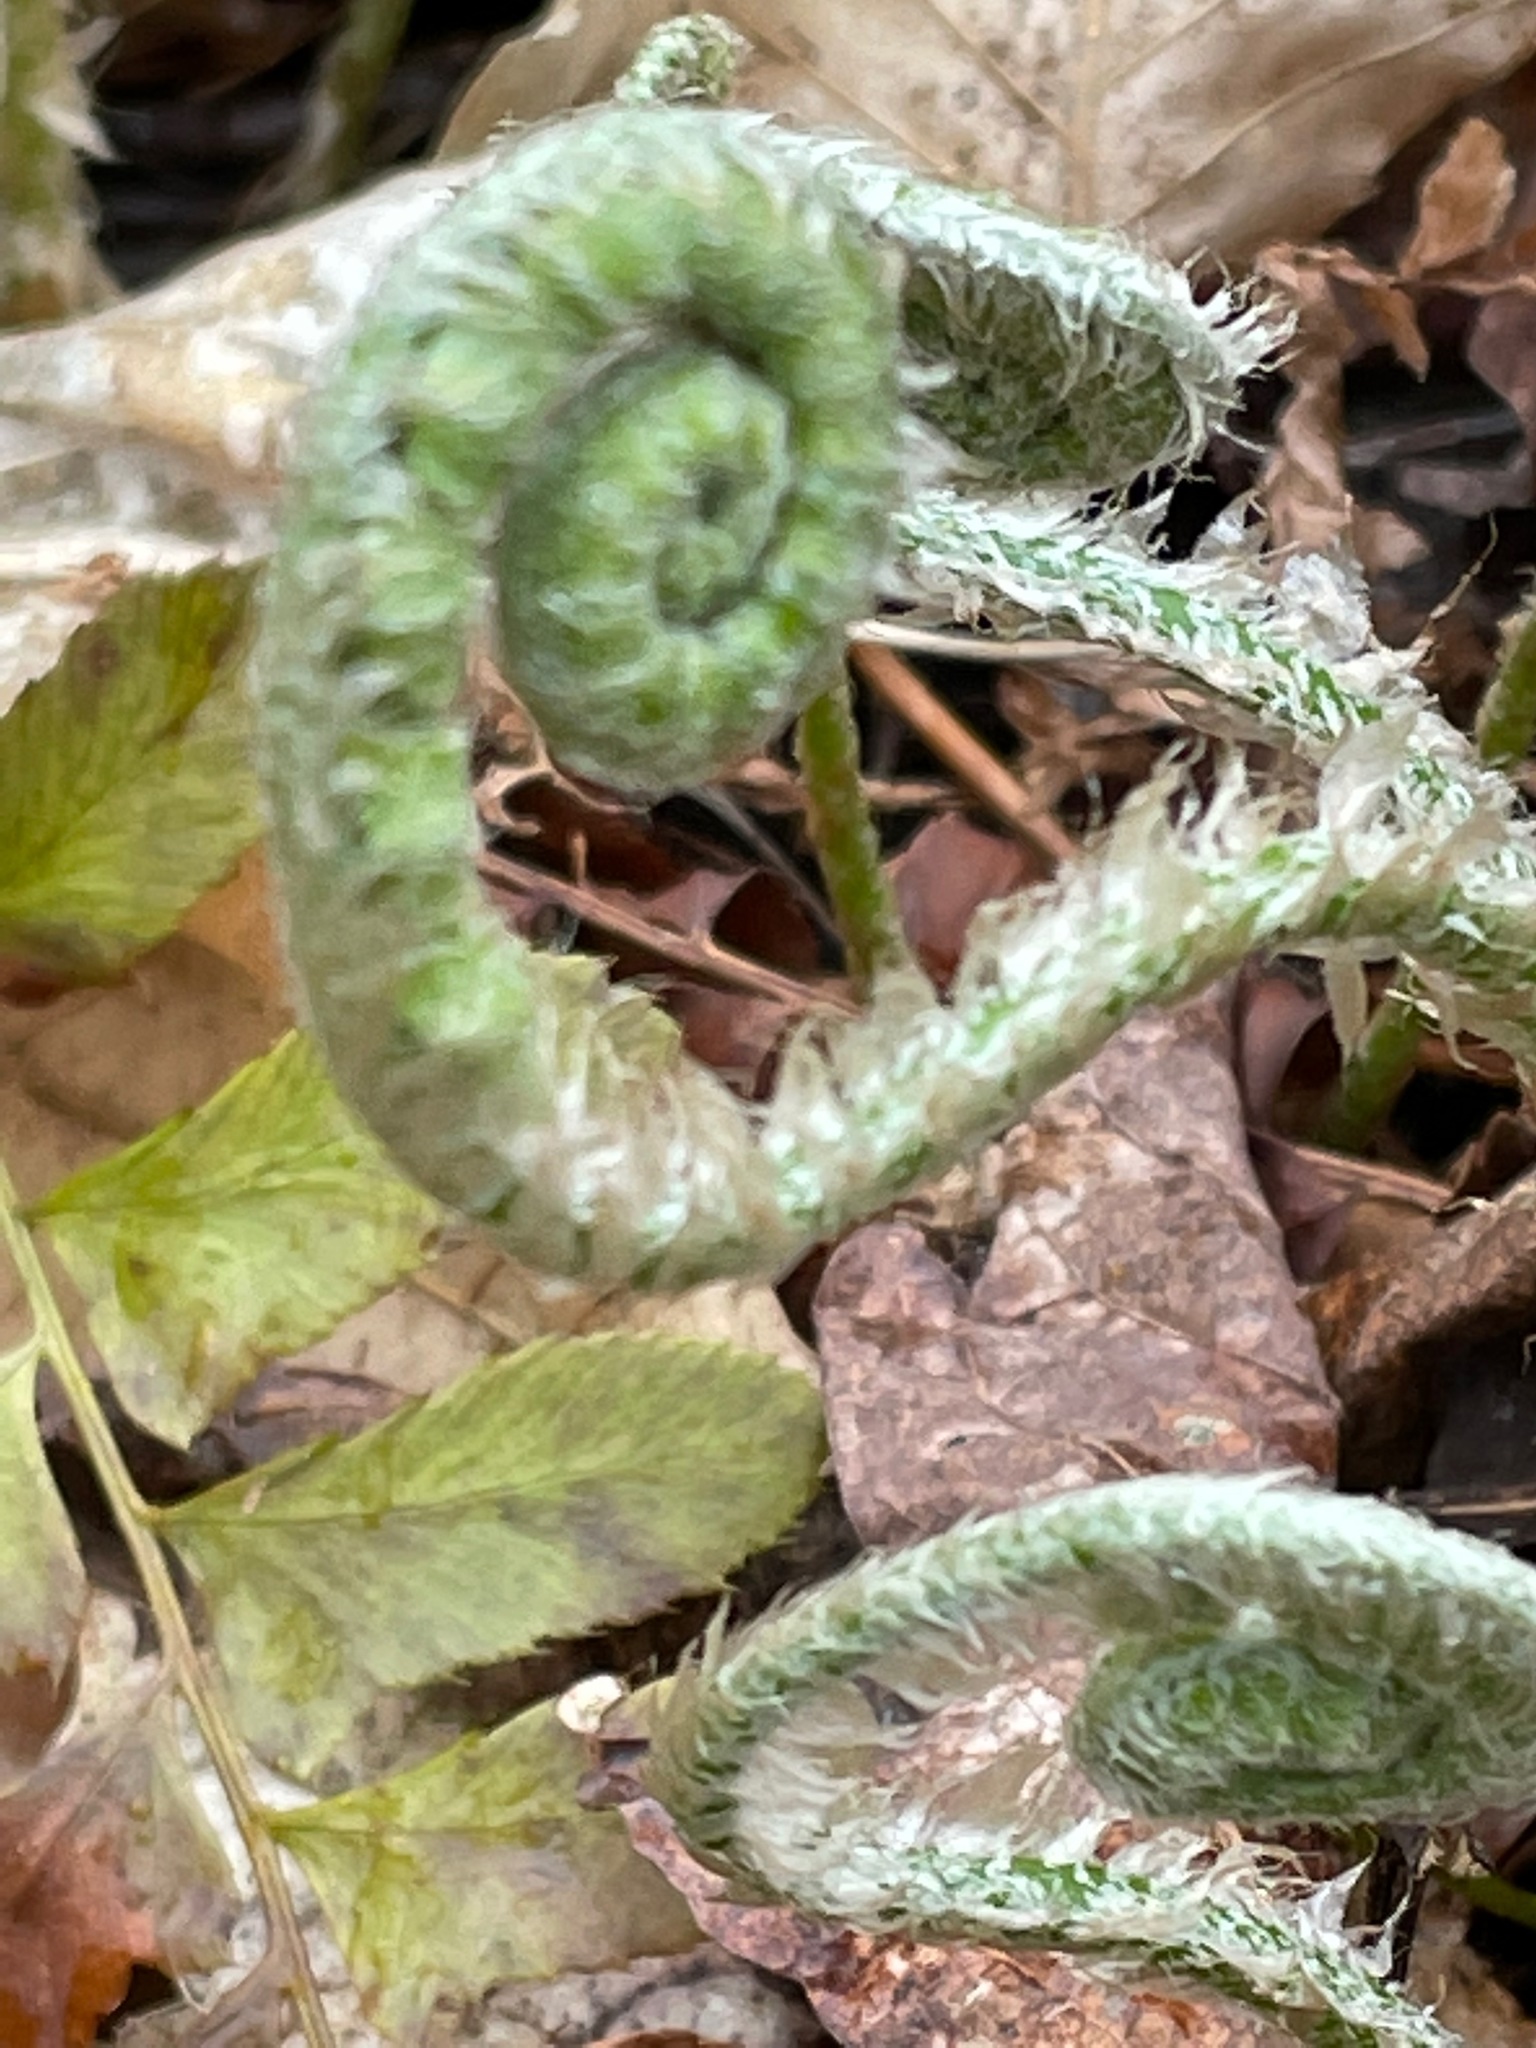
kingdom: Plantae
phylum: Tracheophyta
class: Polypodiopsida
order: Polypodiales
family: Dryopteridaceae
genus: Polystichum
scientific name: Polystichum acrostichoides
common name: Christmas fern
